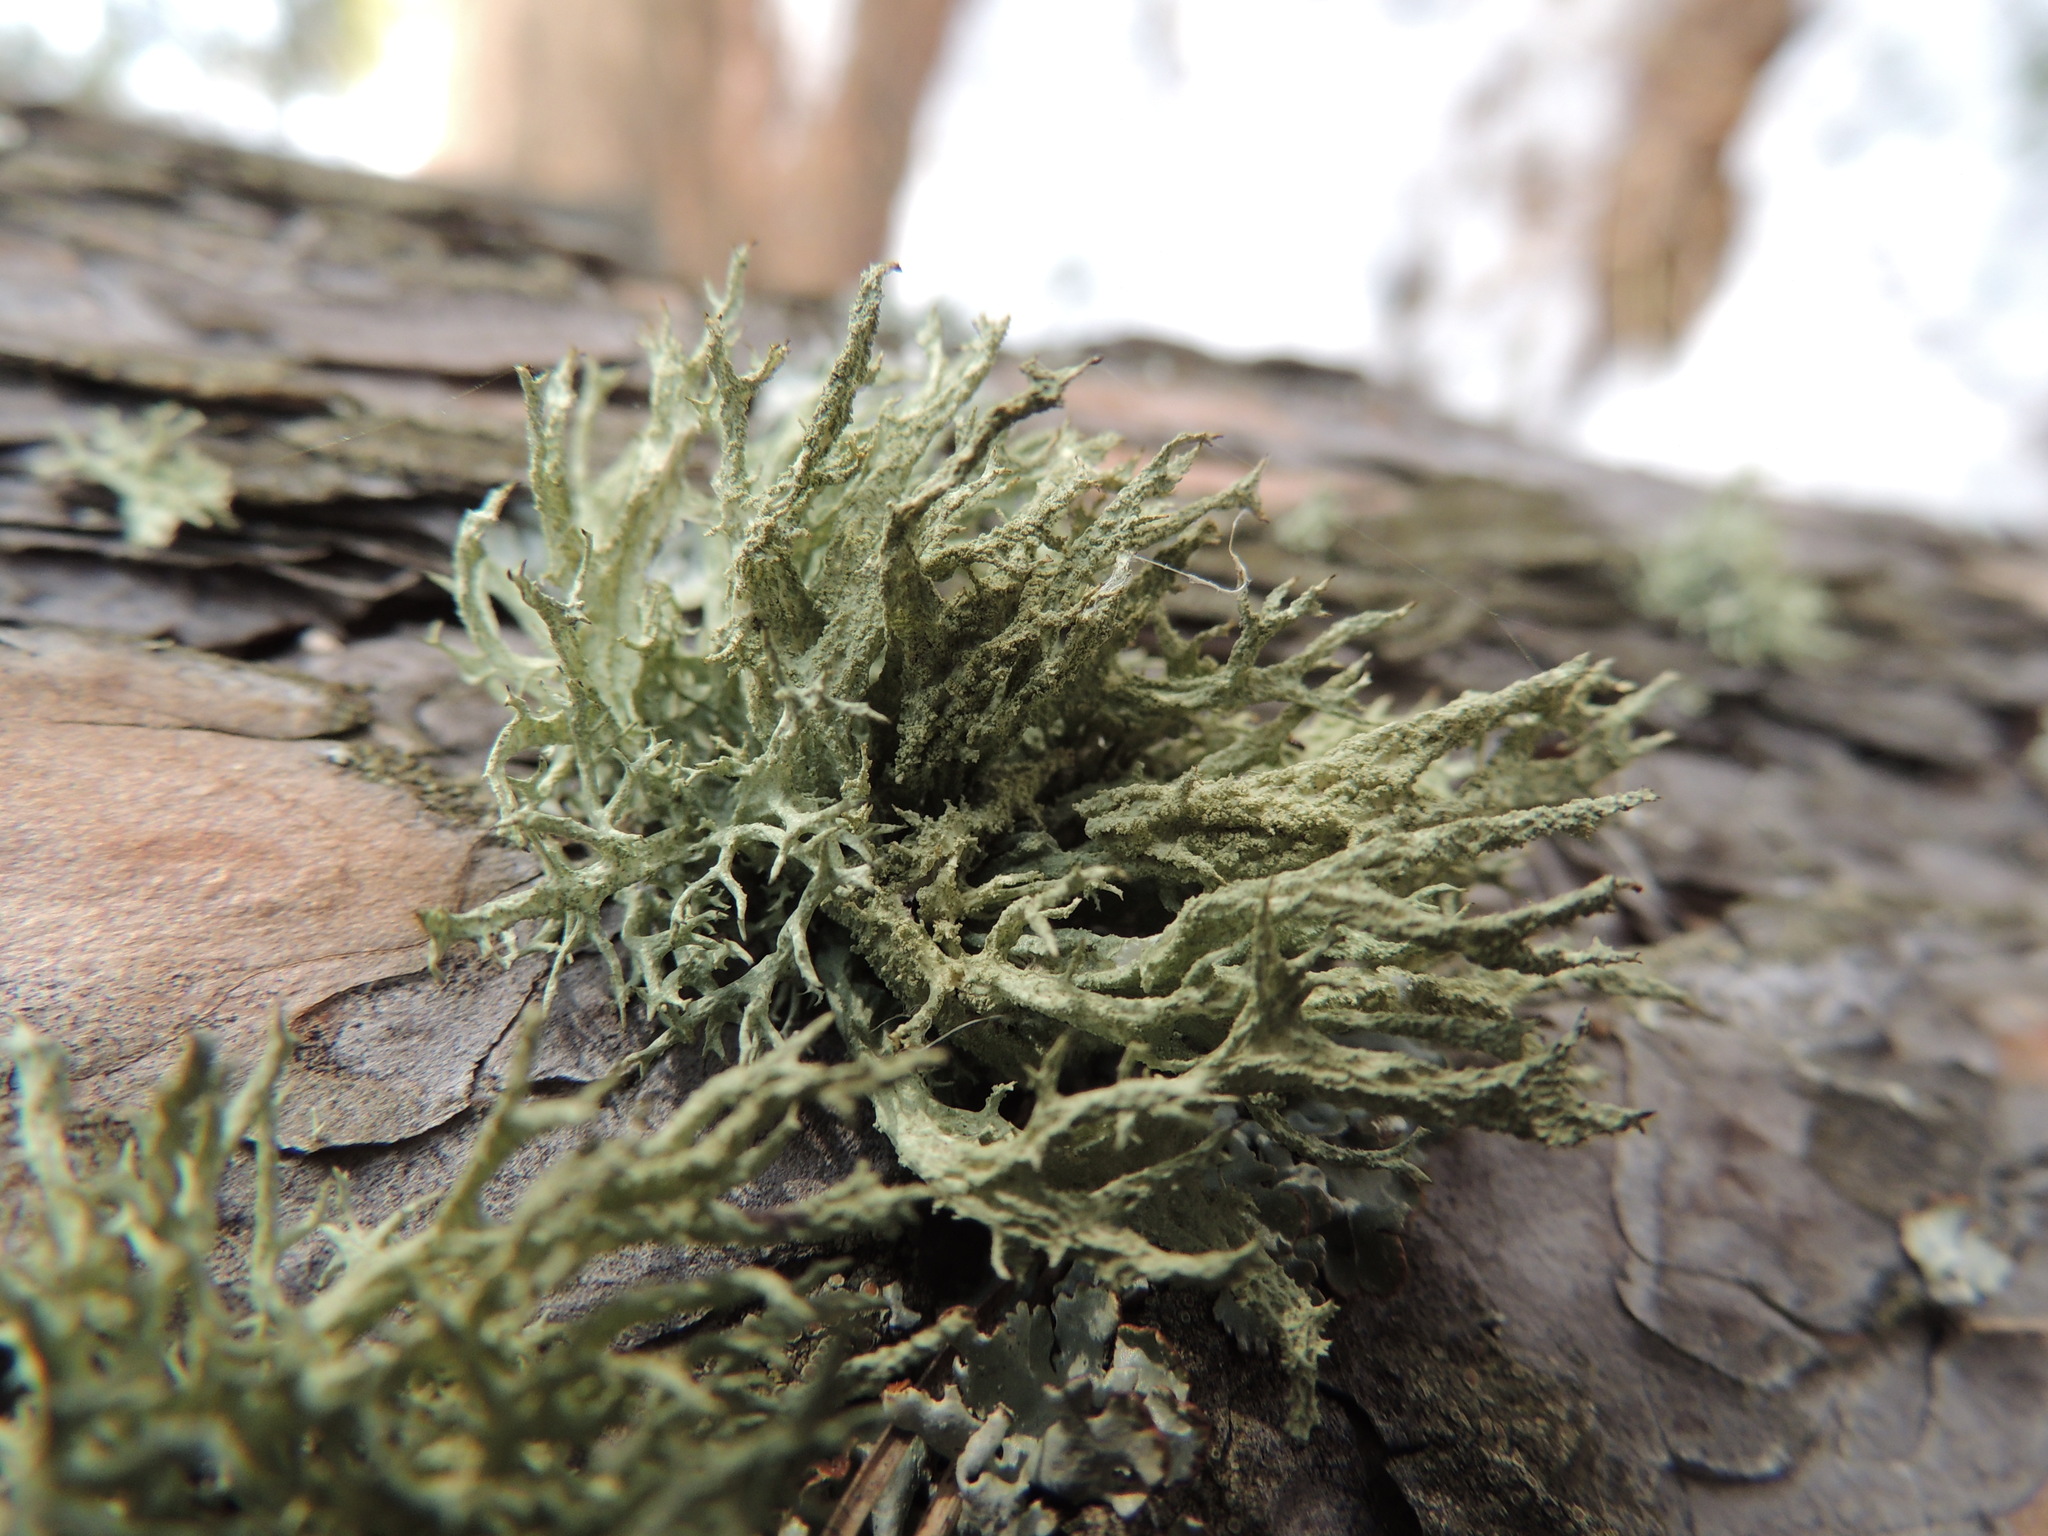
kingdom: Fungi
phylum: Ascomycota
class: Lecanoromycetes
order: Lecanorales
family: Parmeliaceae
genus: Evernia
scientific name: Evernia mesomorpha
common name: Boreal oak moss lichen
